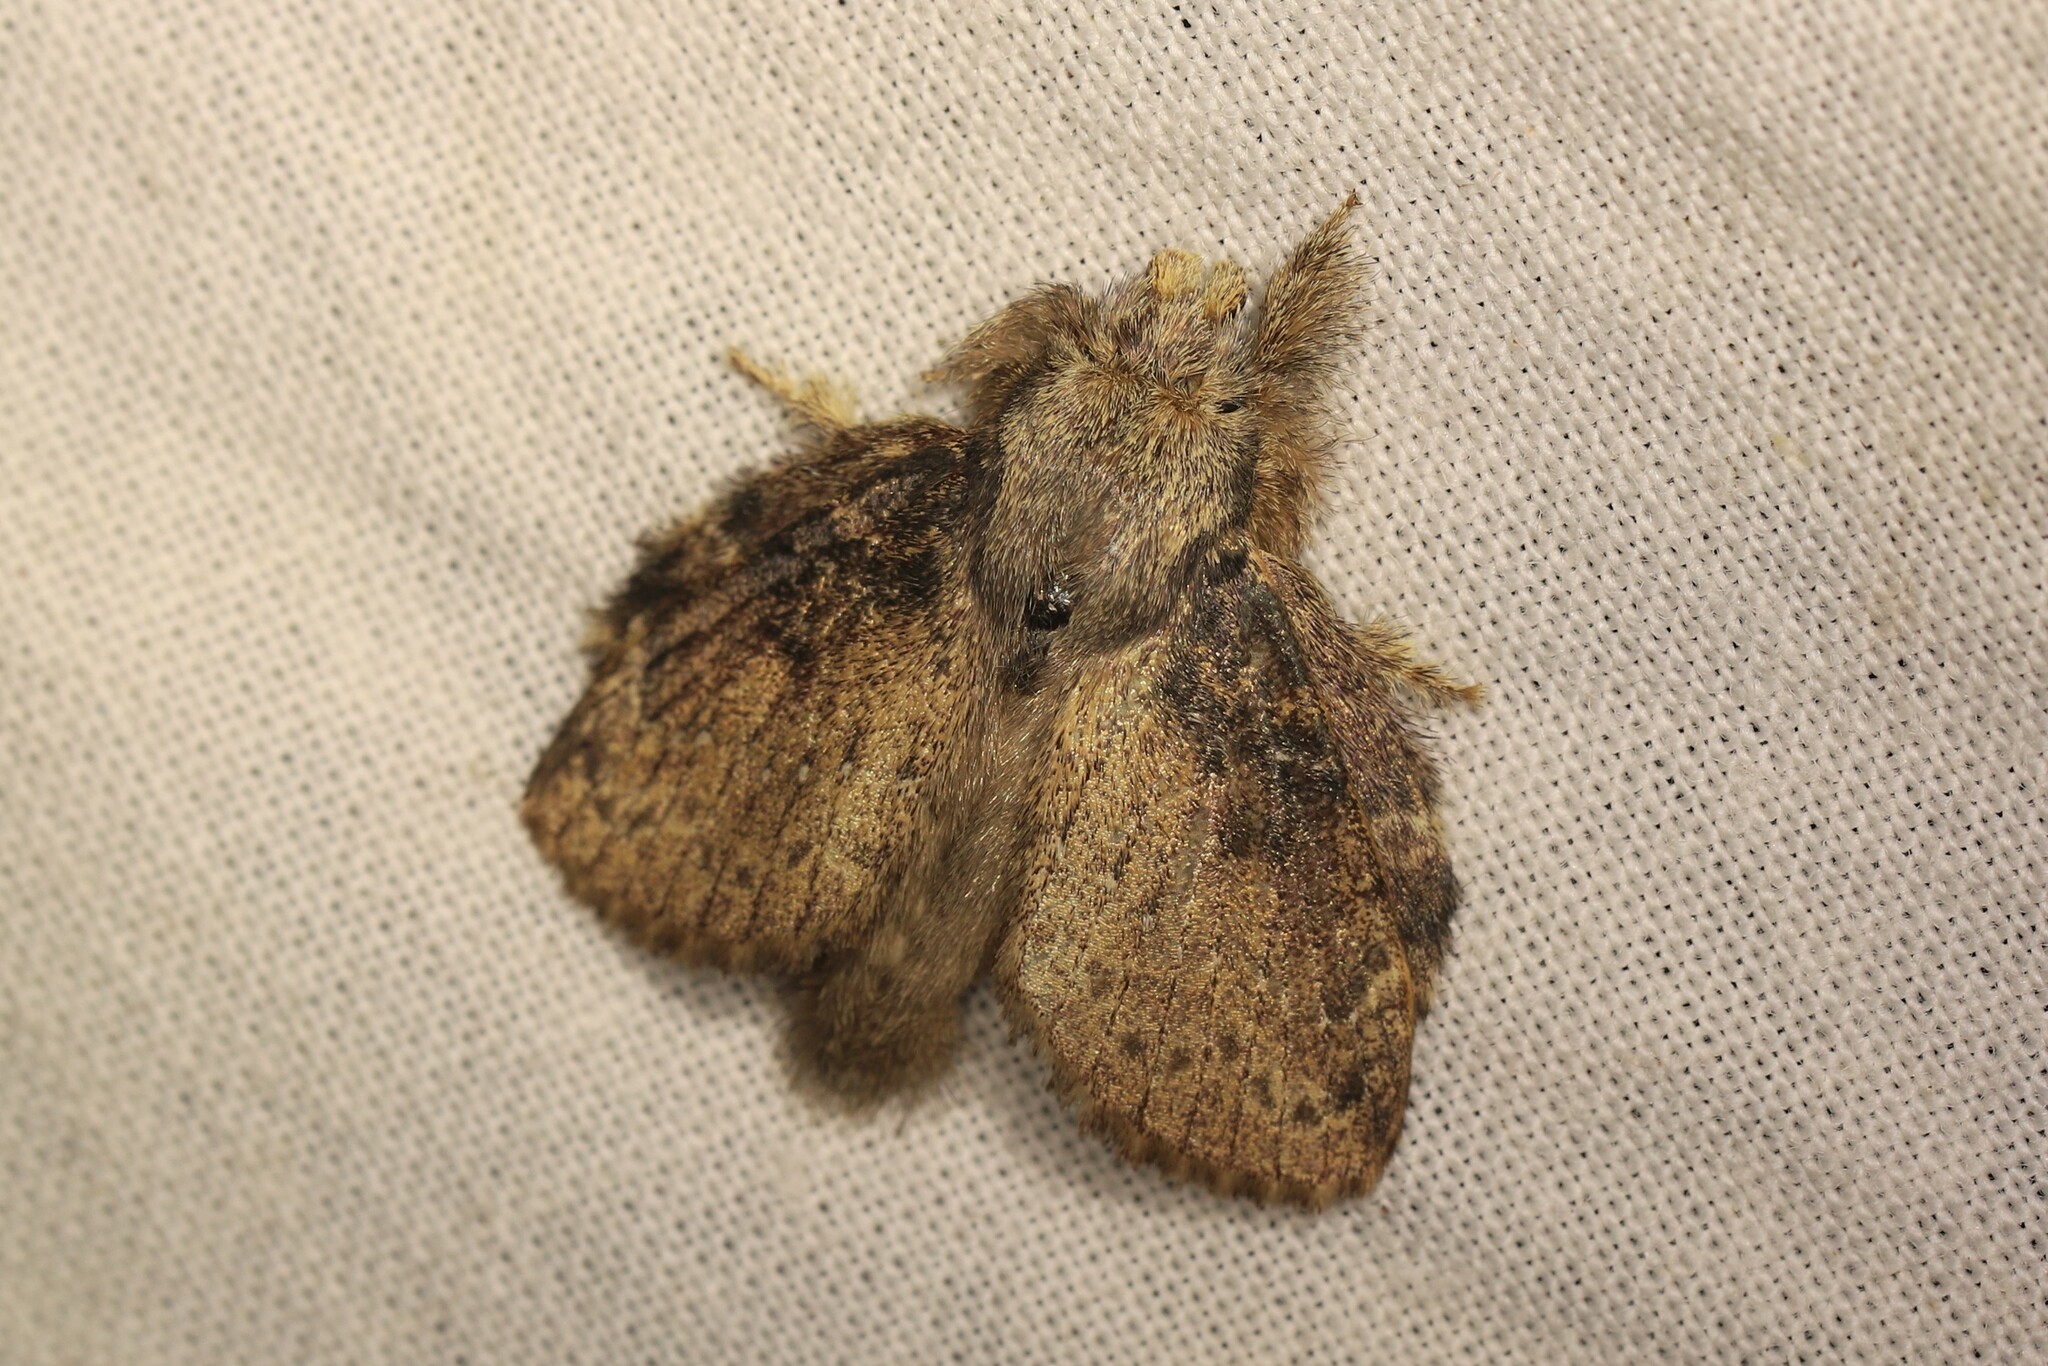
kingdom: Animalia
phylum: Arthropoda
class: Insecta
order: Lepidoptera
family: Lasiocampidae
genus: Euglyphis
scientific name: Euglyphis faeculenta
